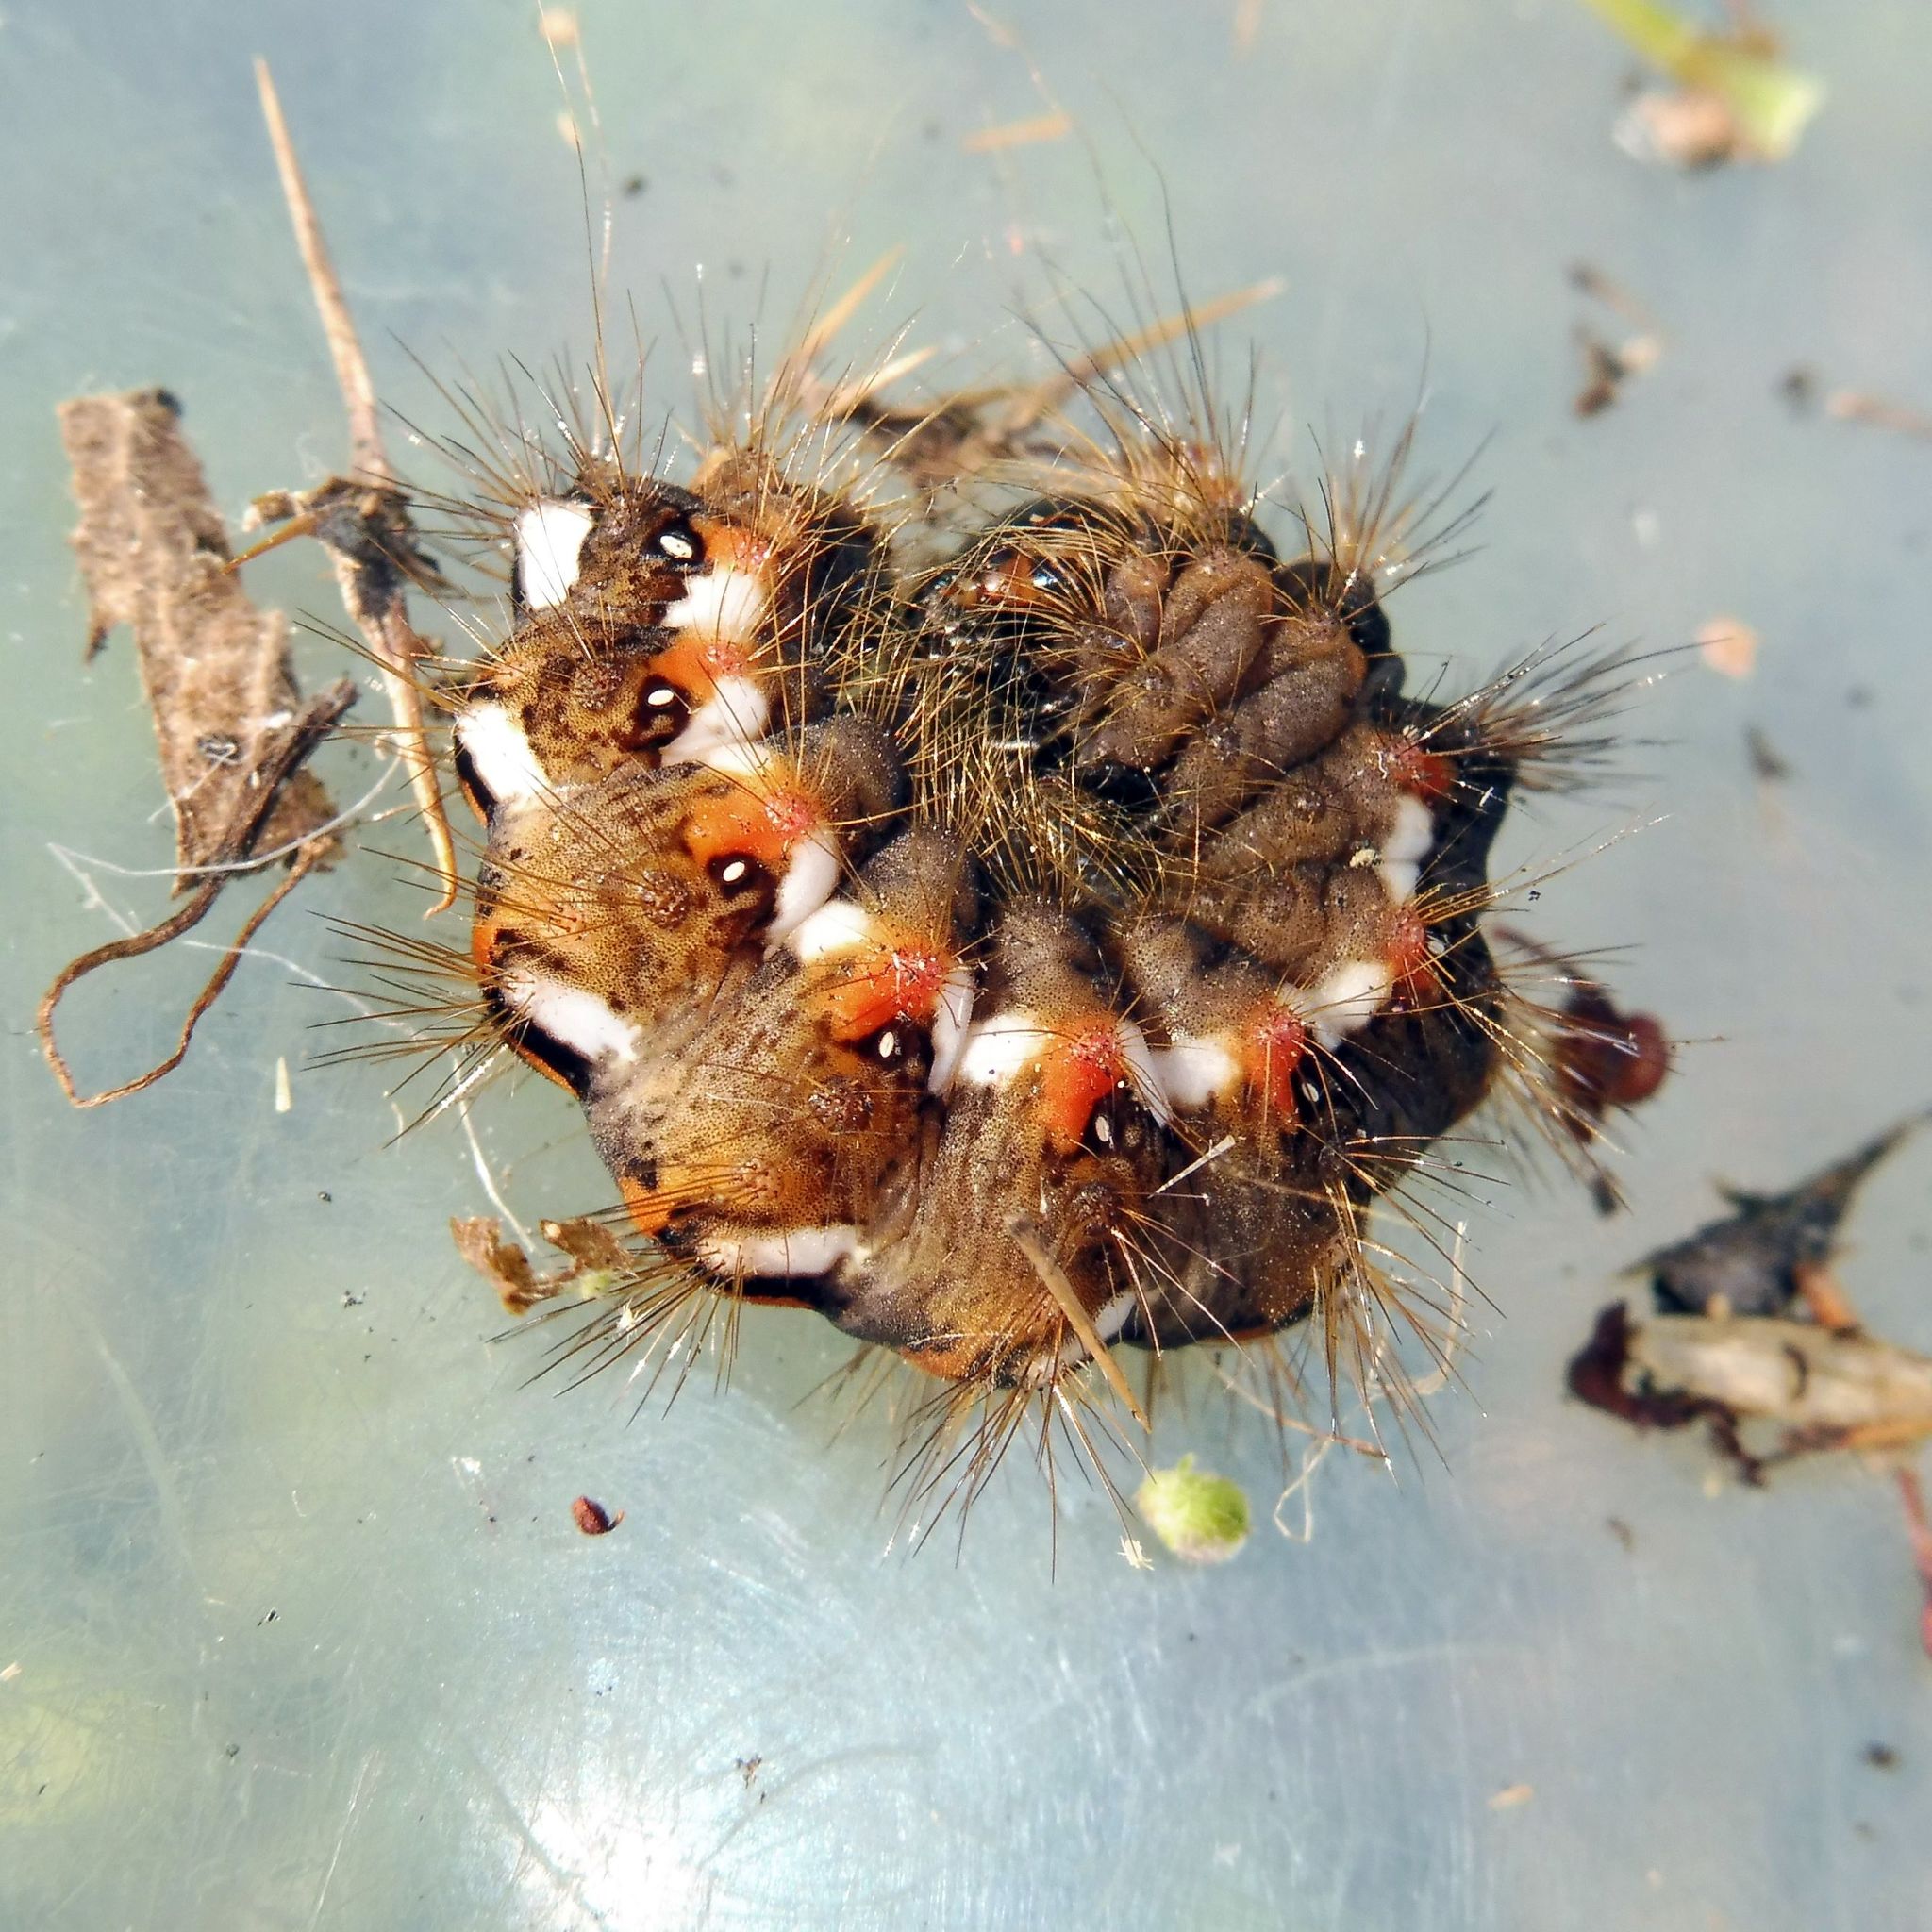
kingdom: Animalia
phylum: Arthropoda
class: Insecta
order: Lepidoptera
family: Noctuidae
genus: Acronicta
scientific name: Acronicta rumicis
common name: Knot grass
